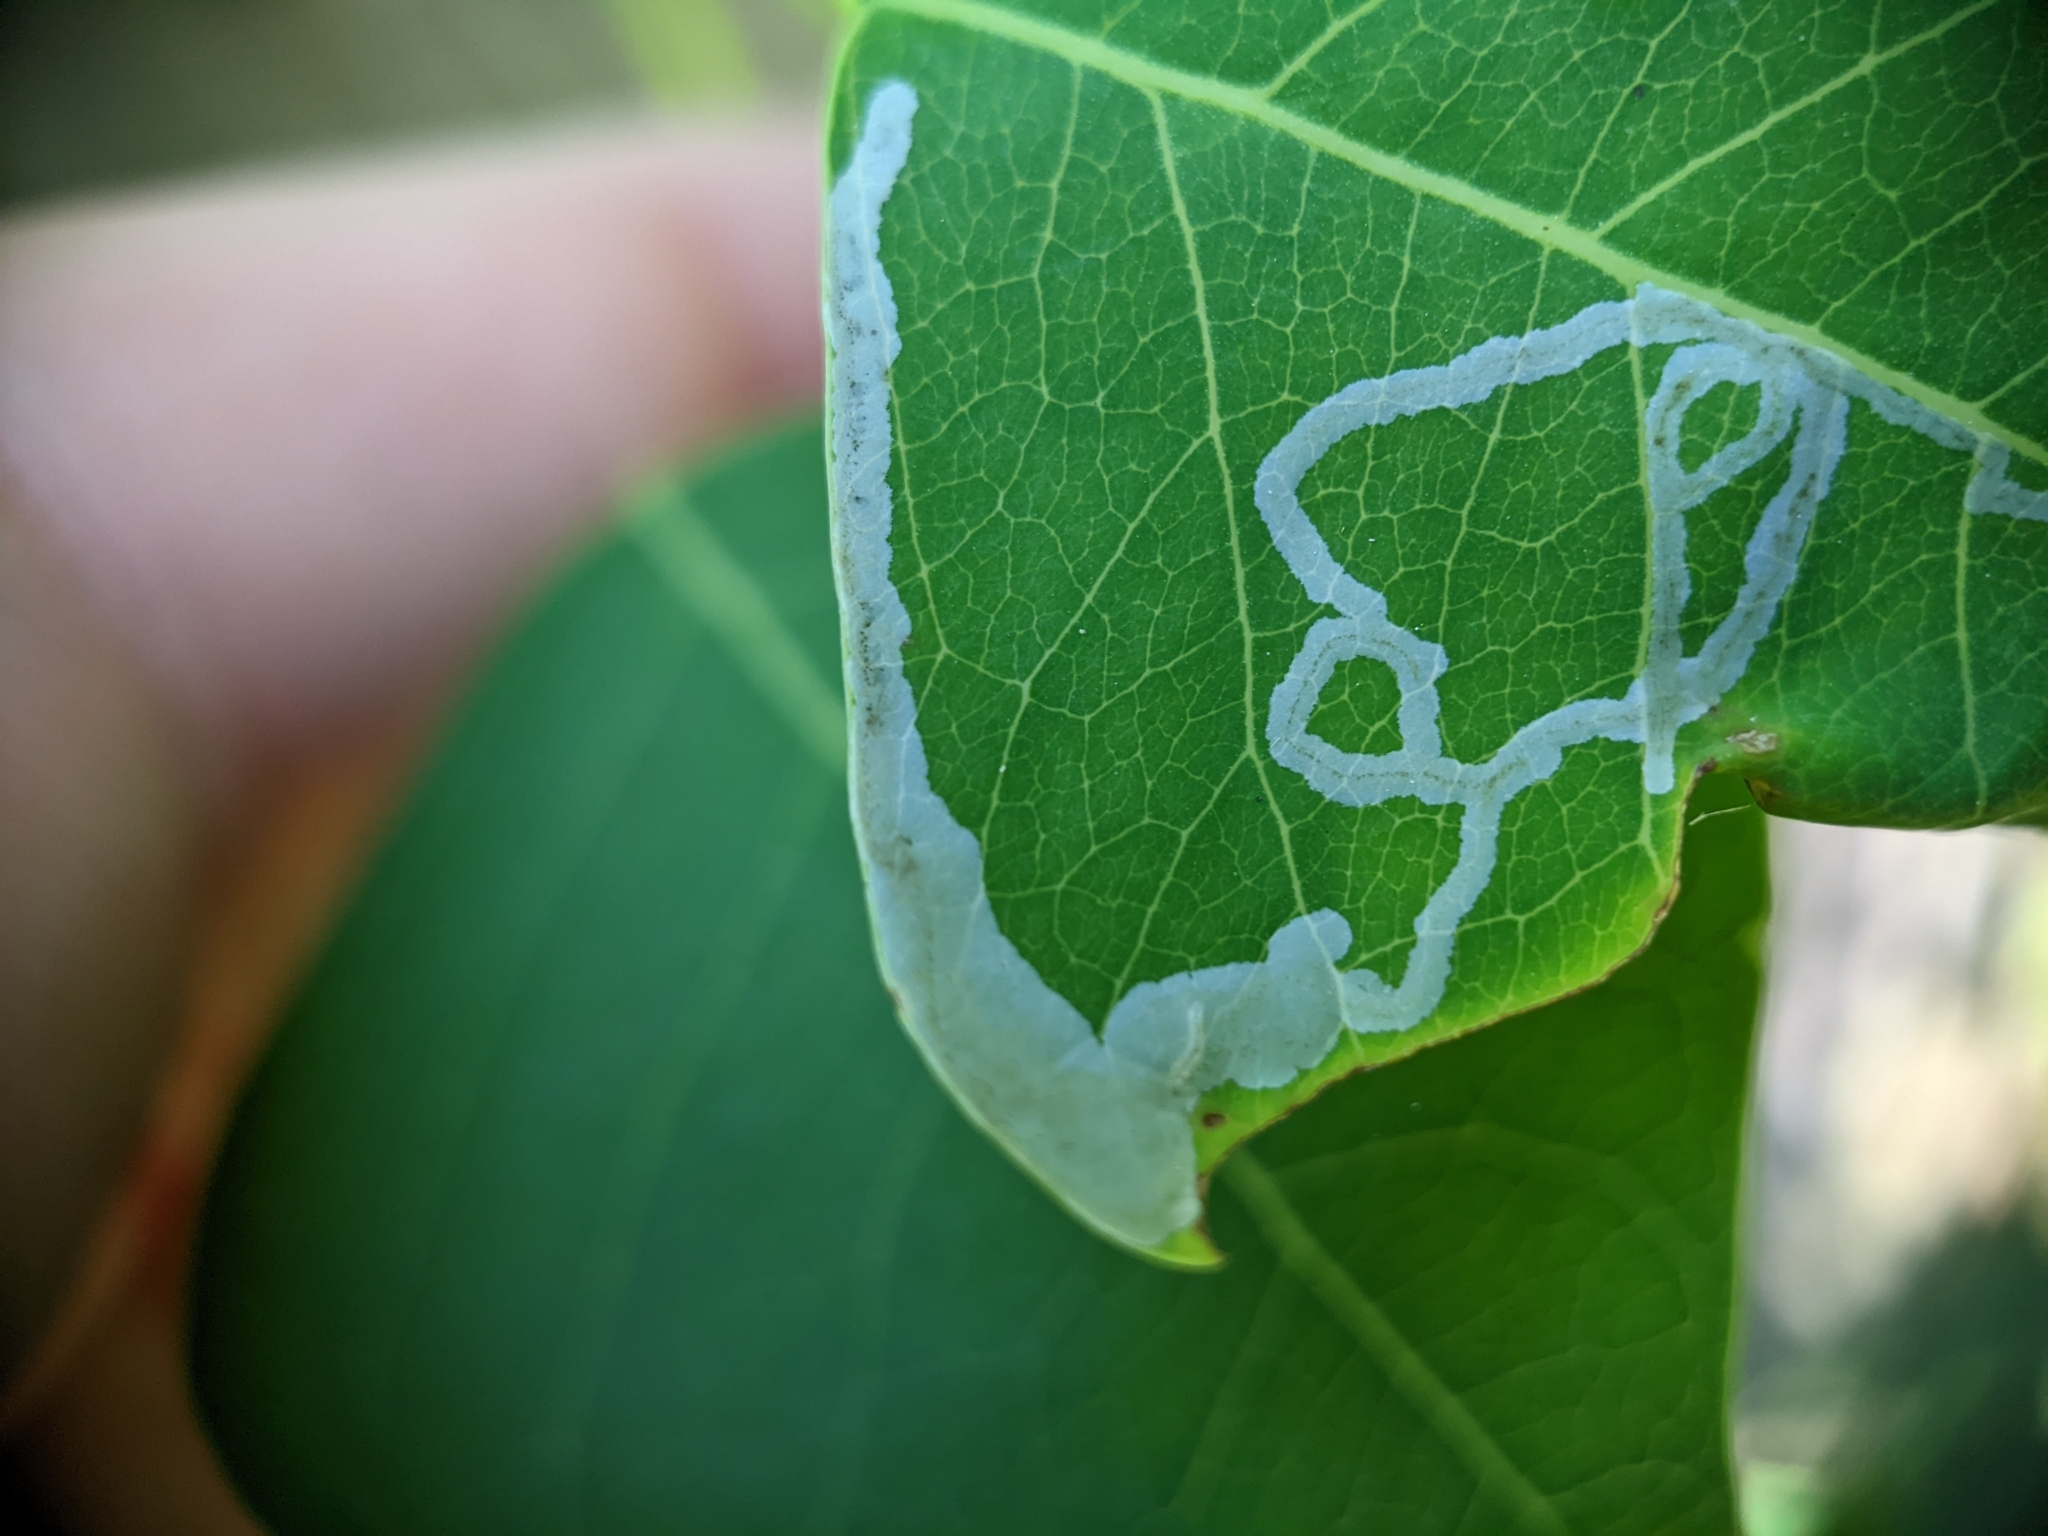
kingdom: Animalia
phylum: Arthropoda
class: Insecta
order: Lepidoptera
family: Gracillariidae
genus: Caloptilia
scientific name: Caloptilia triadicae
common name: Tallow leaf roller
